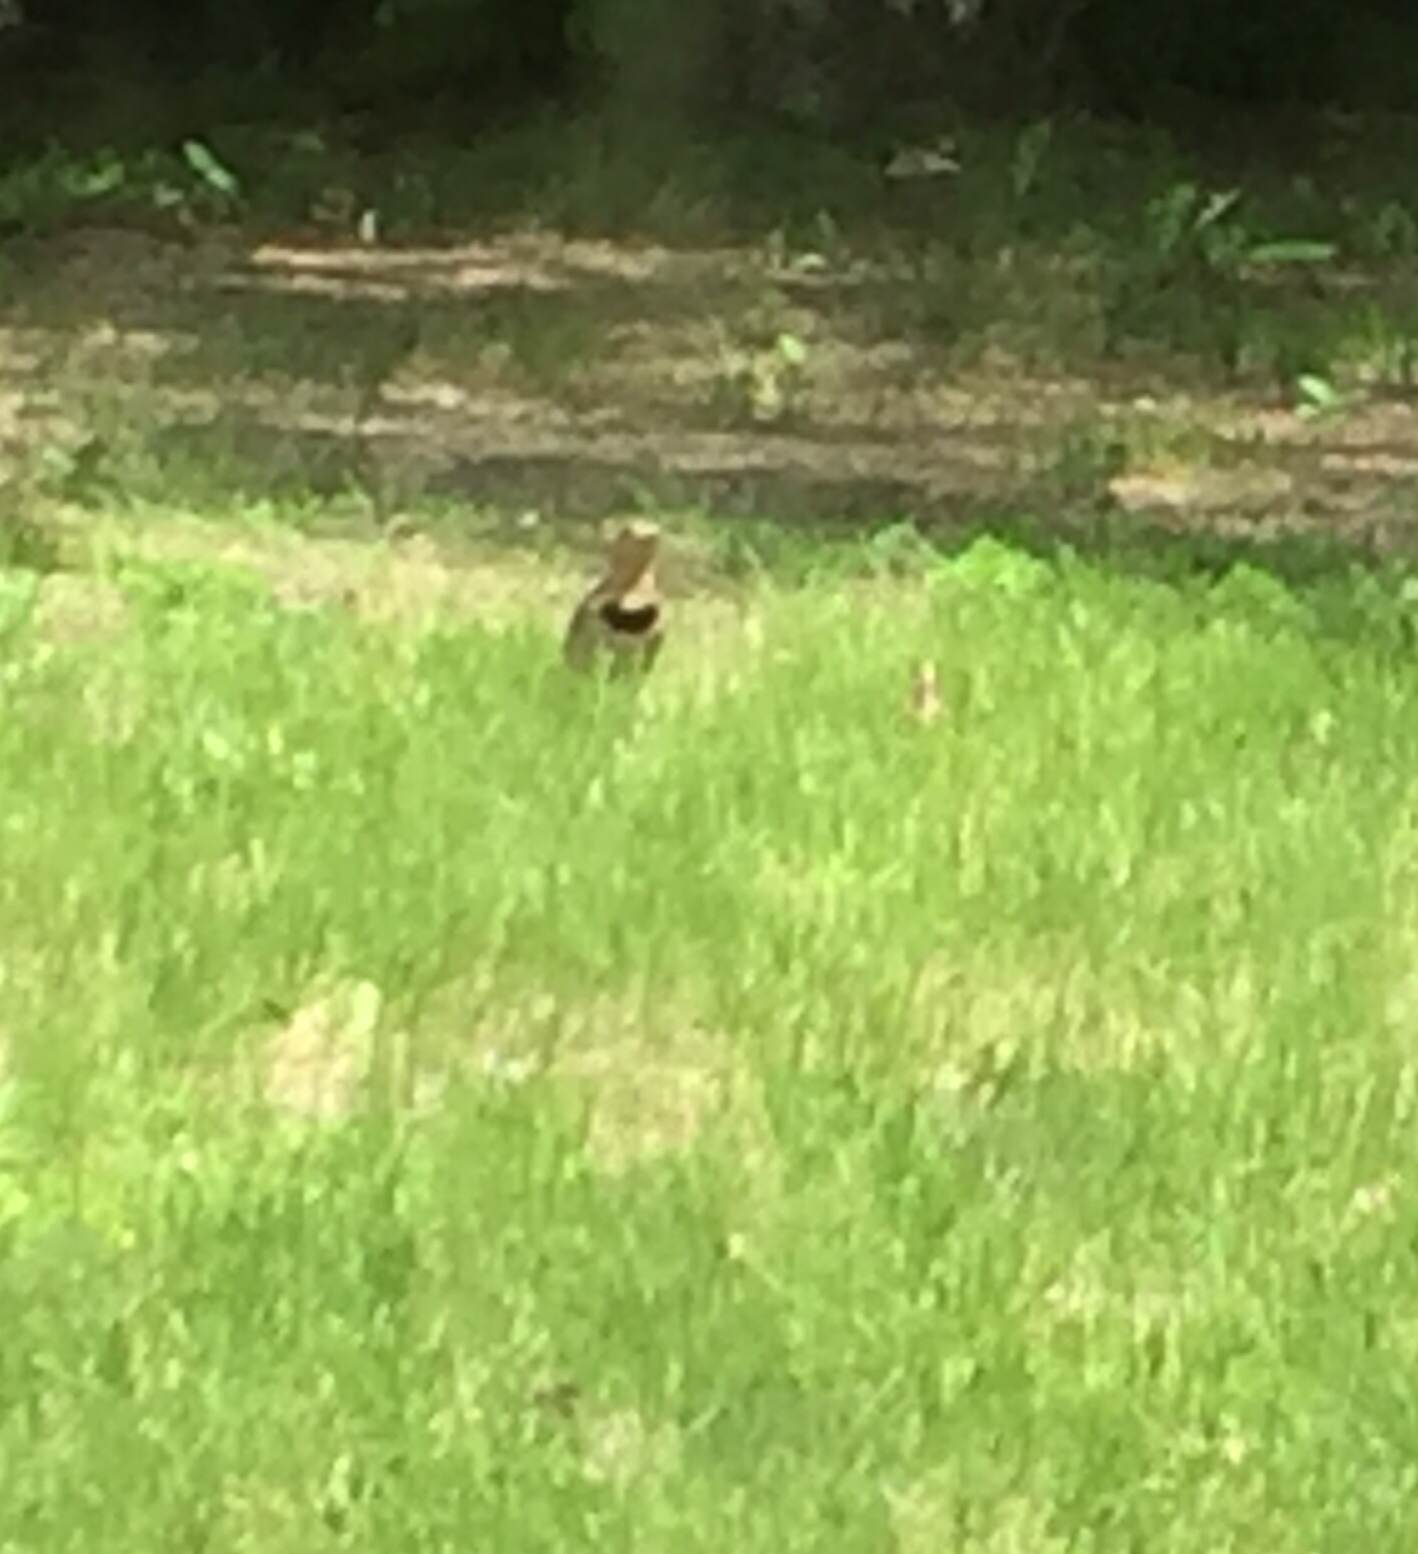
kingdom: Animalia
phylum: Chordata
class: Aves
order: Piciformes
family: Picidae
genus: Colaptes
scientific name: Colaptes auratus
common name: Northern flicker
